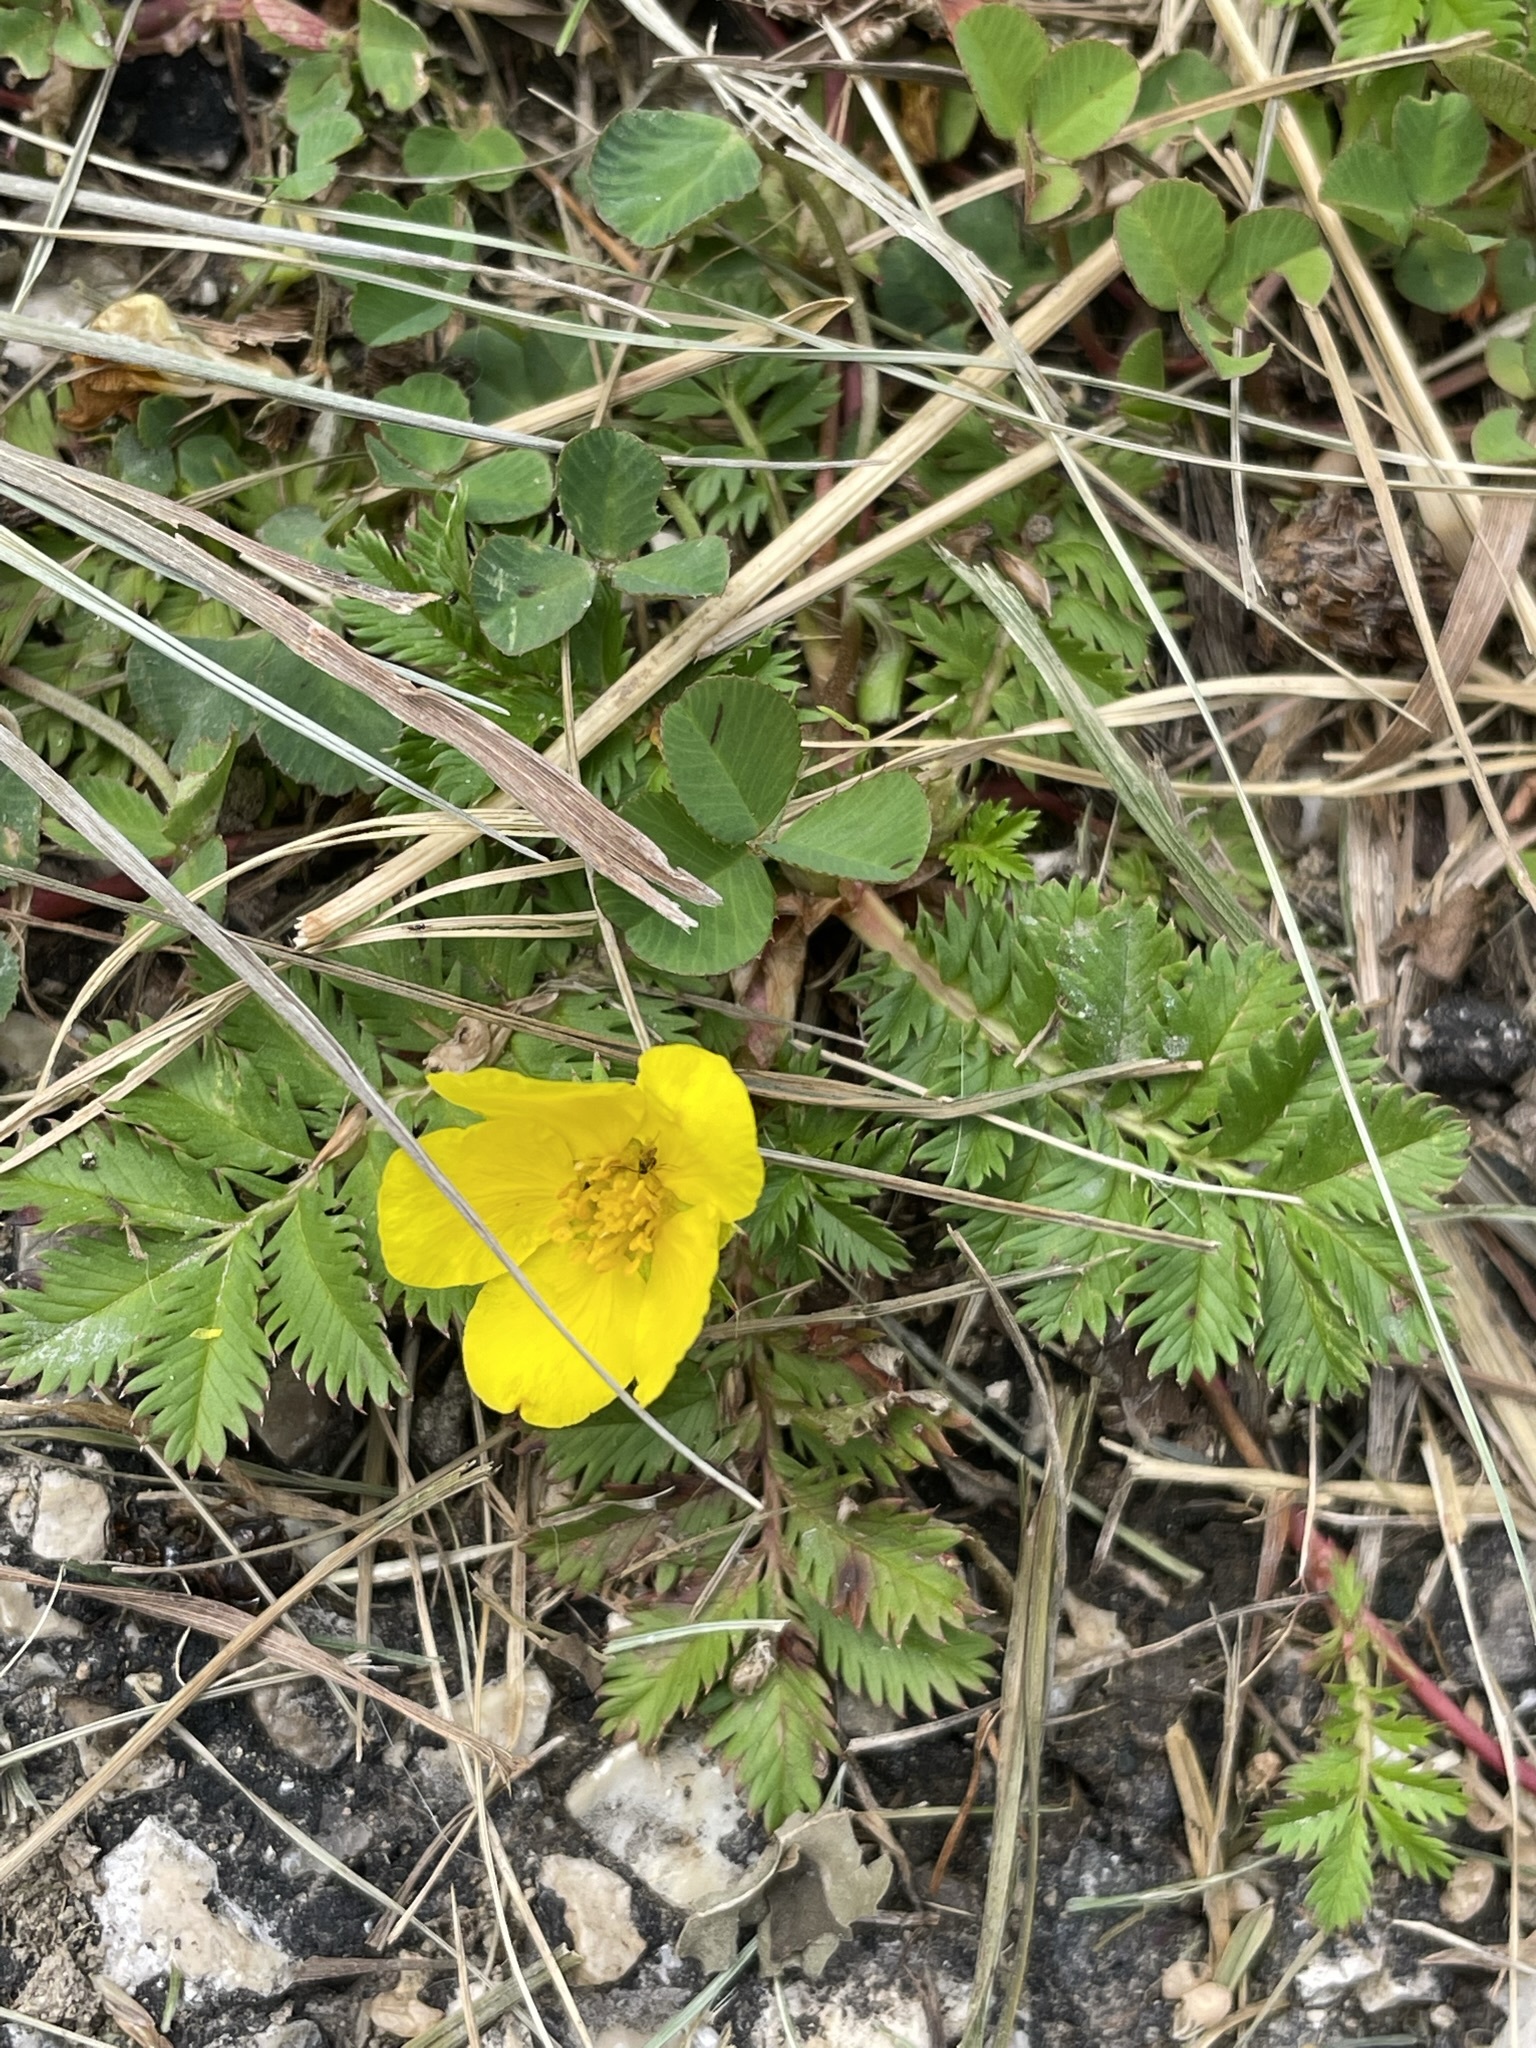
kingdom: Plantae
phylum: Tracheophyta
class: Magnoliopsida
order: Rosales
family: Rosaceae
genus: Argentina
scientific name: Argentina anserina
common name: Common silverweed
